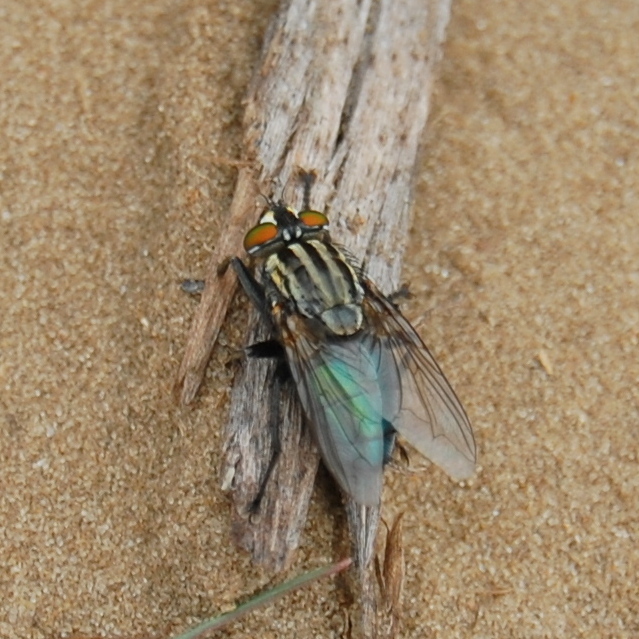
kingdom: Animalia
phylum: Arthropoda
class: Insecta
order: Diptera
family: Calliphoridae
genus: Sarconesia
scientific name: Sarconesia chlorogaster
